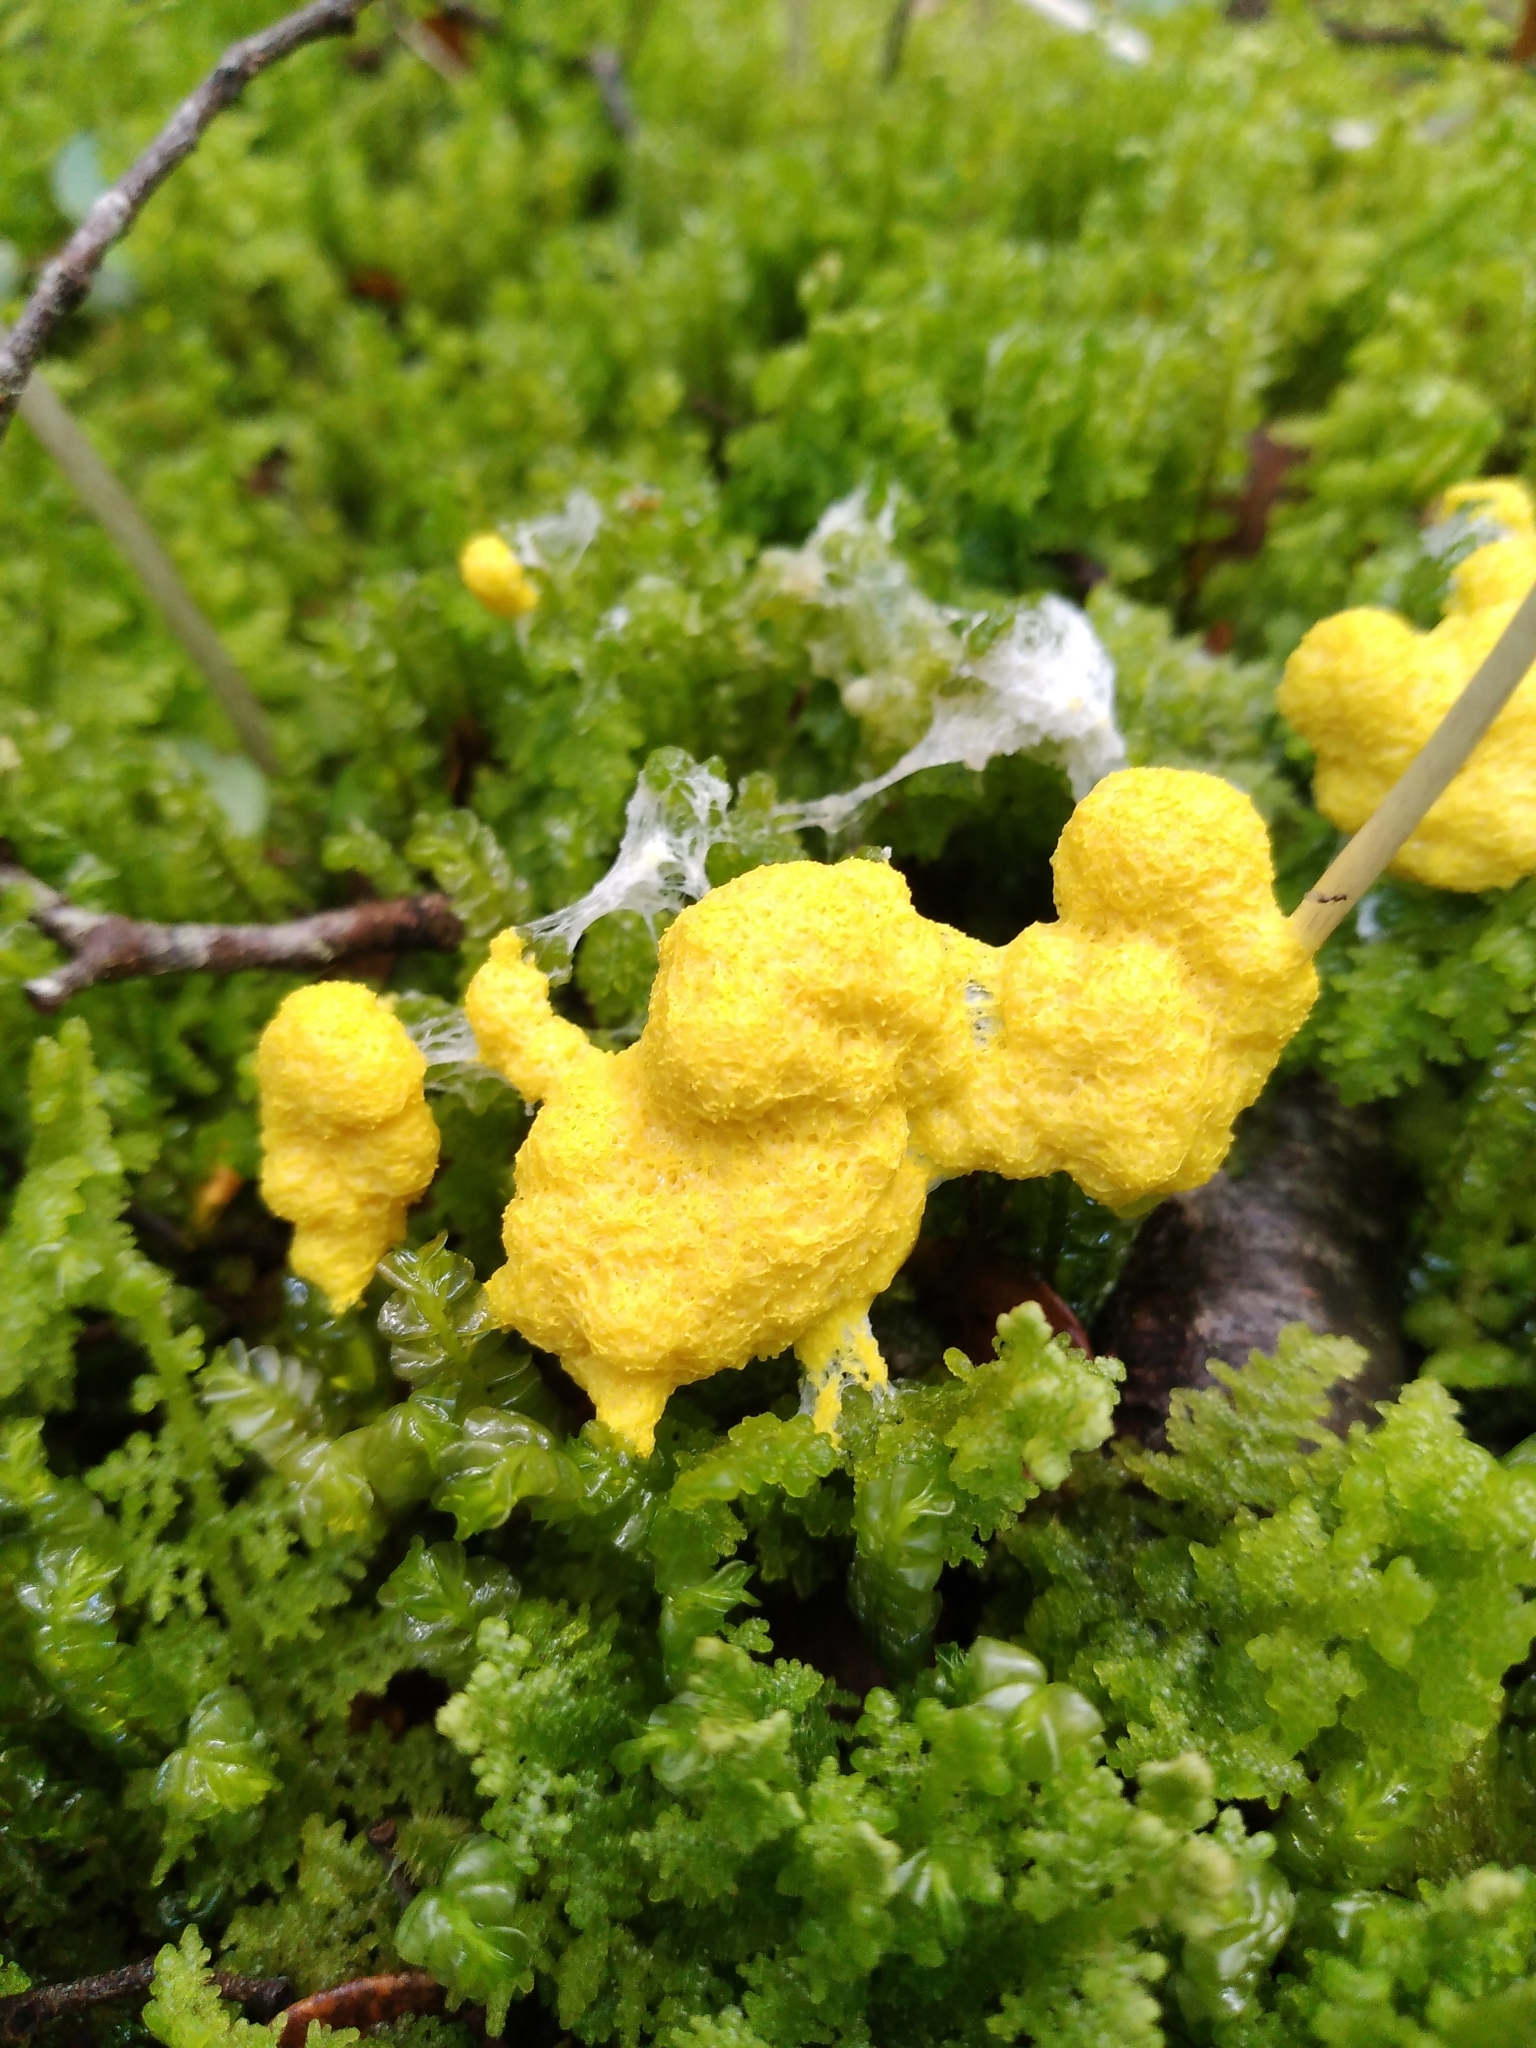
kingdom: Protozoa
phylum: Mycetozoa
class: Myxomycetes
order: Physarales
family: Physaraceae
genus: Fuligo
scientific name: Fuligo septica
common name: Dog vomit slime mold
